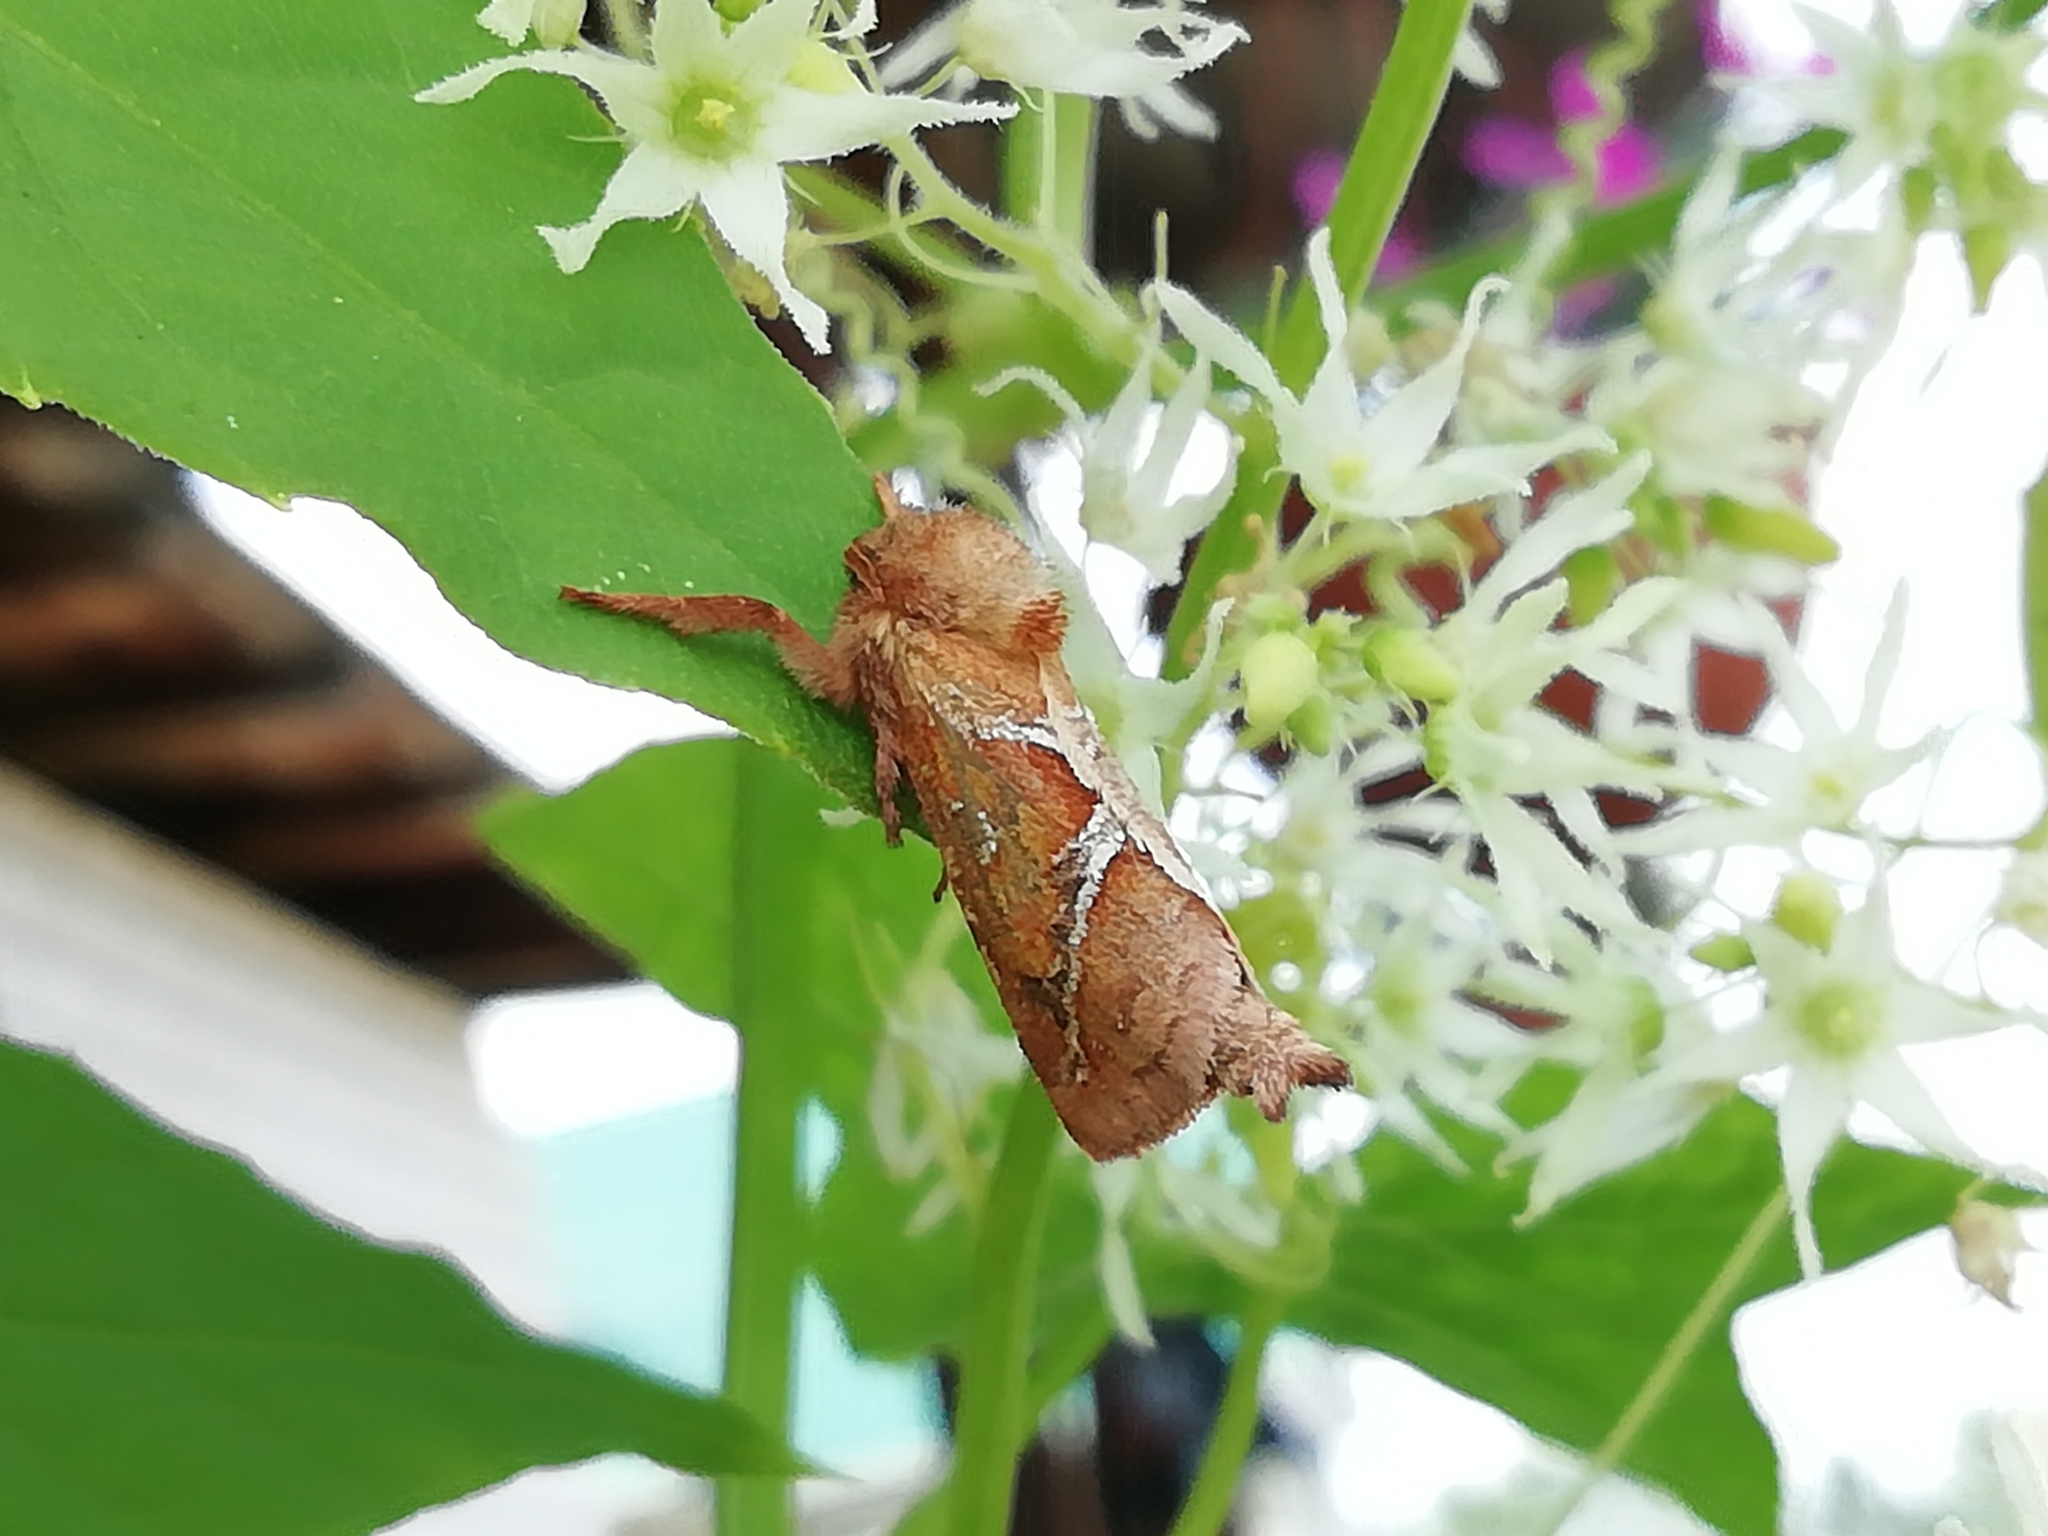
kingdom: Animalia
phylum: Arthropoda
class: Insecta
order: Lepidoptera
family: Hepialidae
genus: Triodia
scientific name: Triodia sylvina
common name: Orange swift
